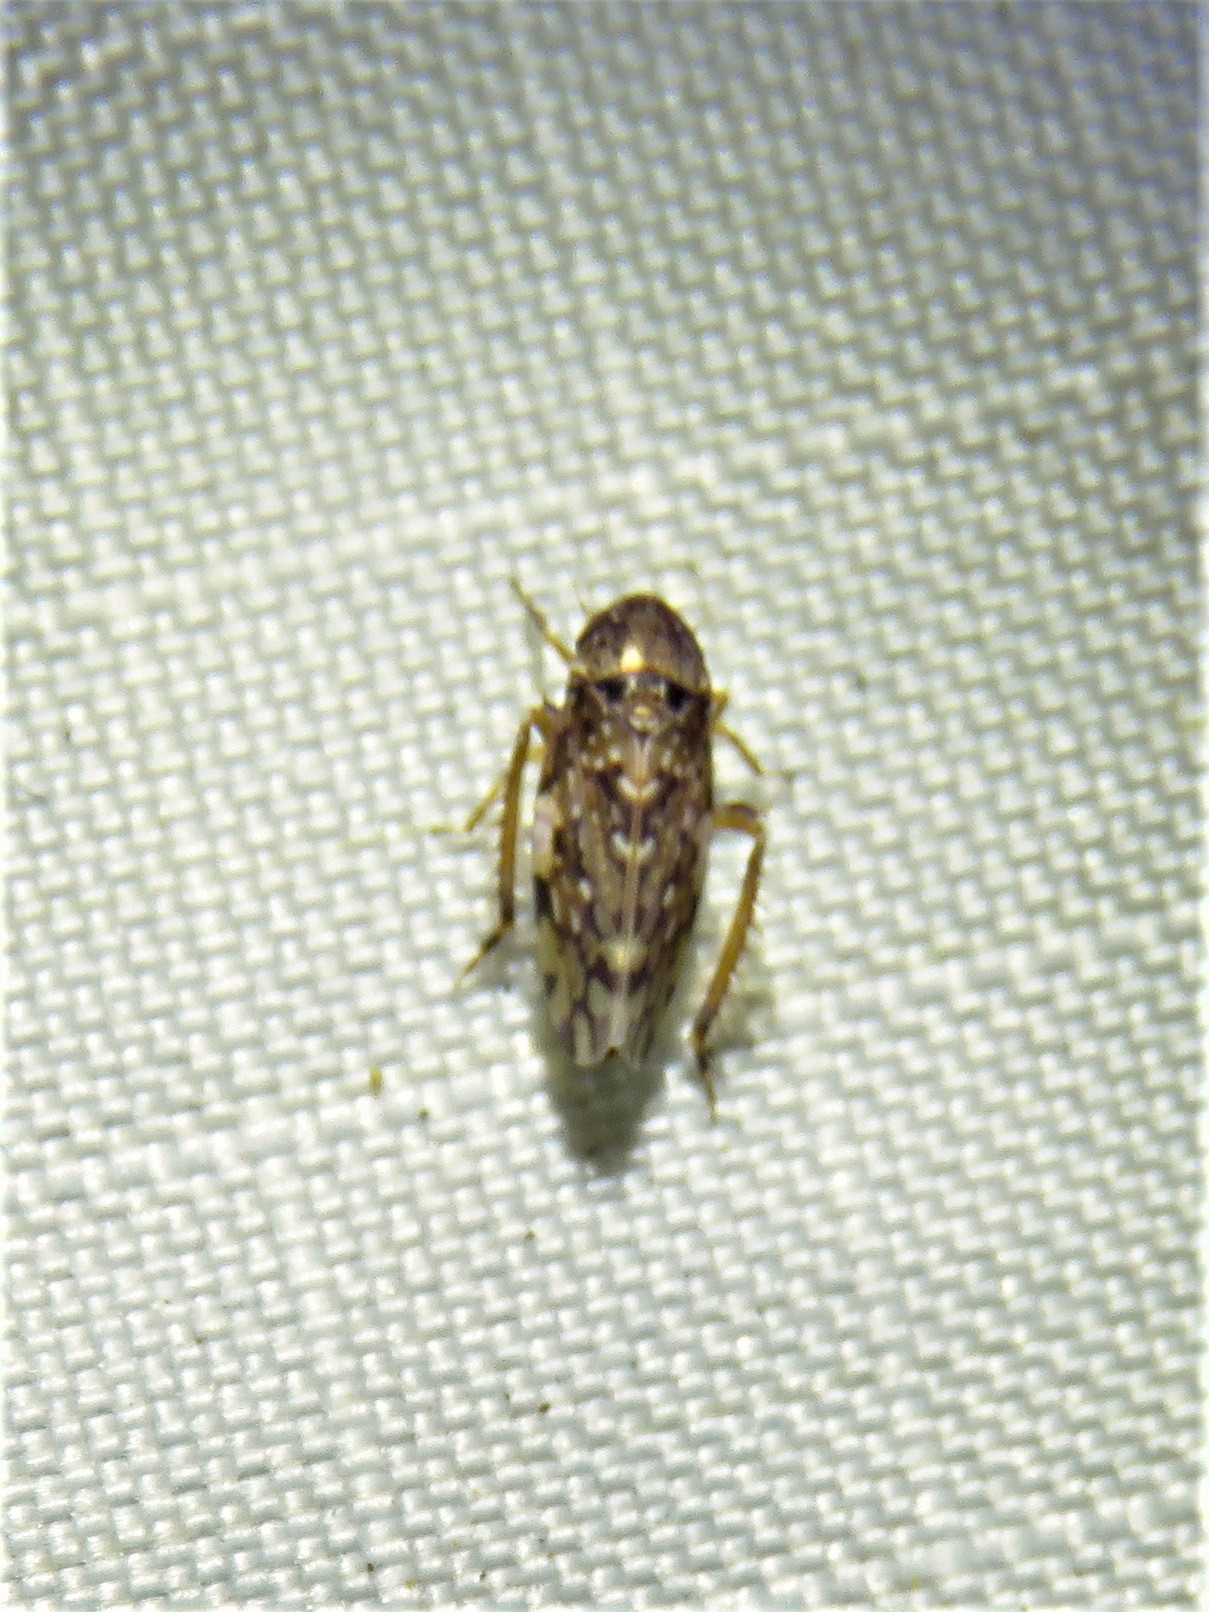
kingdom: Animalia
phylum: Arthropoda
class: Insecta
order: Hemiptera
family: Cicadellidae
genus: Xestocephalus
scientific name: Xestocephalus tessellatus
